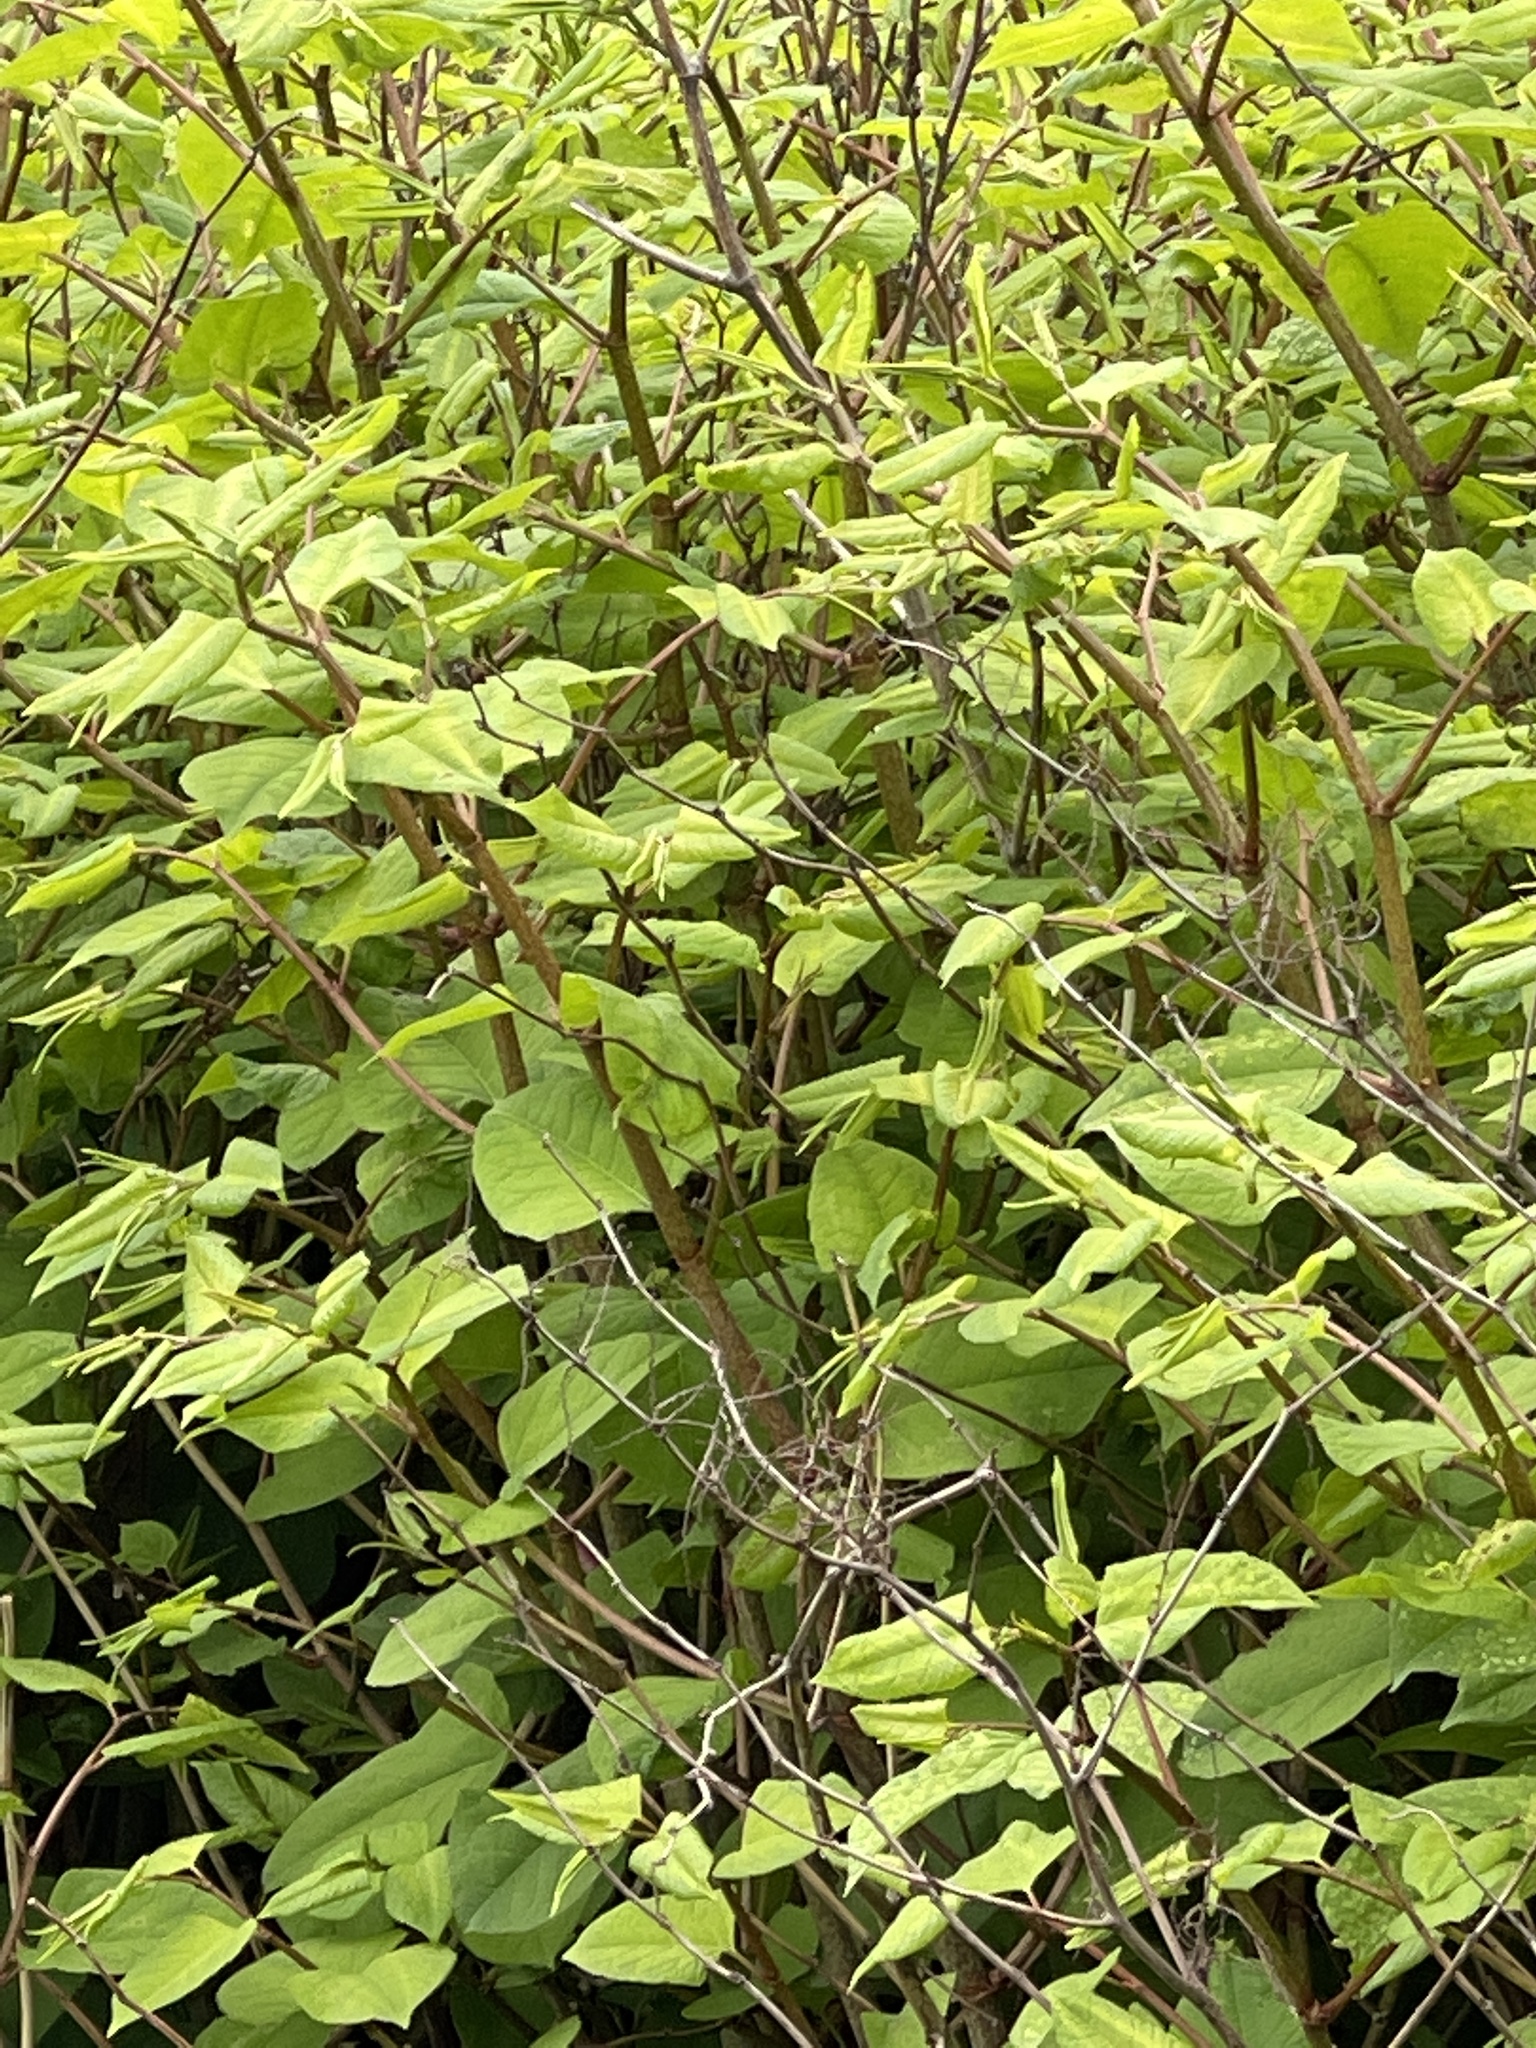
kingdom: Plantae
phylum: Tracheophyta
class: Magnoliopsida
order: Caryophyllales
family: Polygonaceae
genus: Reynoutria
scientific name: Reynoutria japonica
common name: Japanese knotweed
